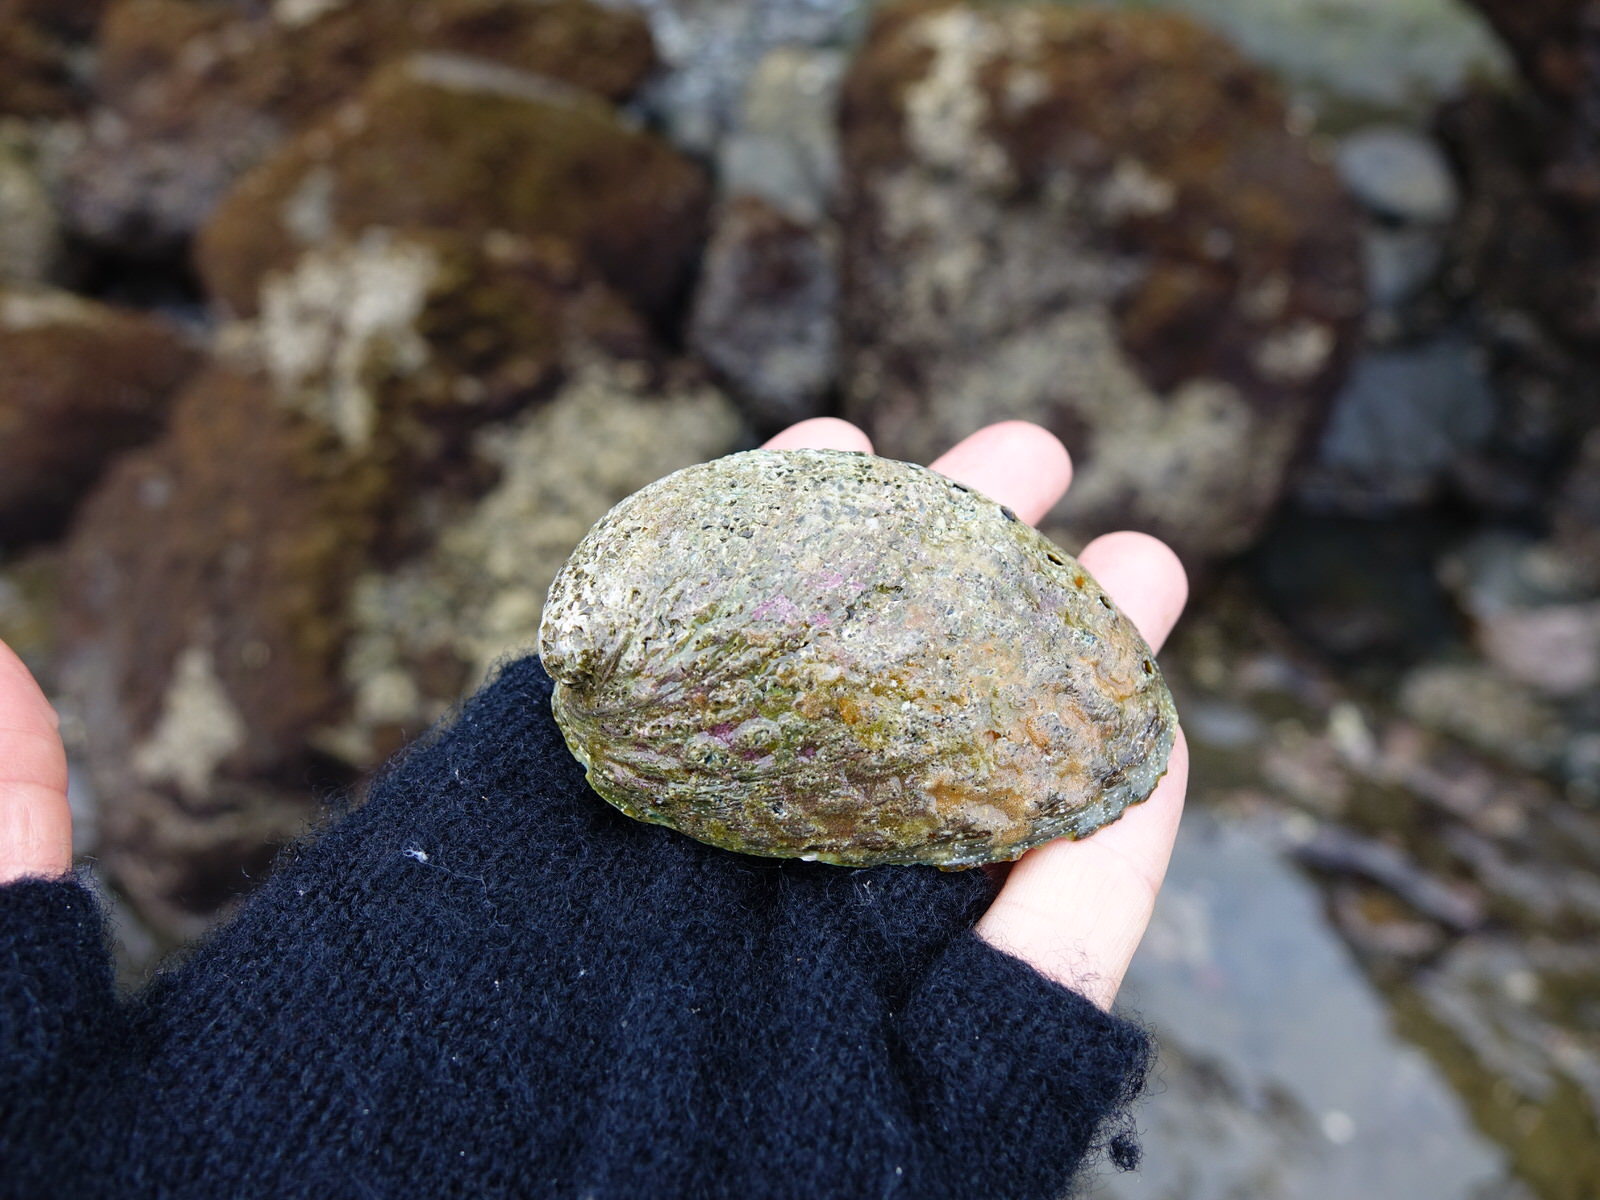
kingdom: Animalia
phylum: Mollusca
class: Gastropoda
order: Lepetellida
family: Haliotidae
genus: Haliotis
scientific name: Haliotis iris
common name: Abalone
